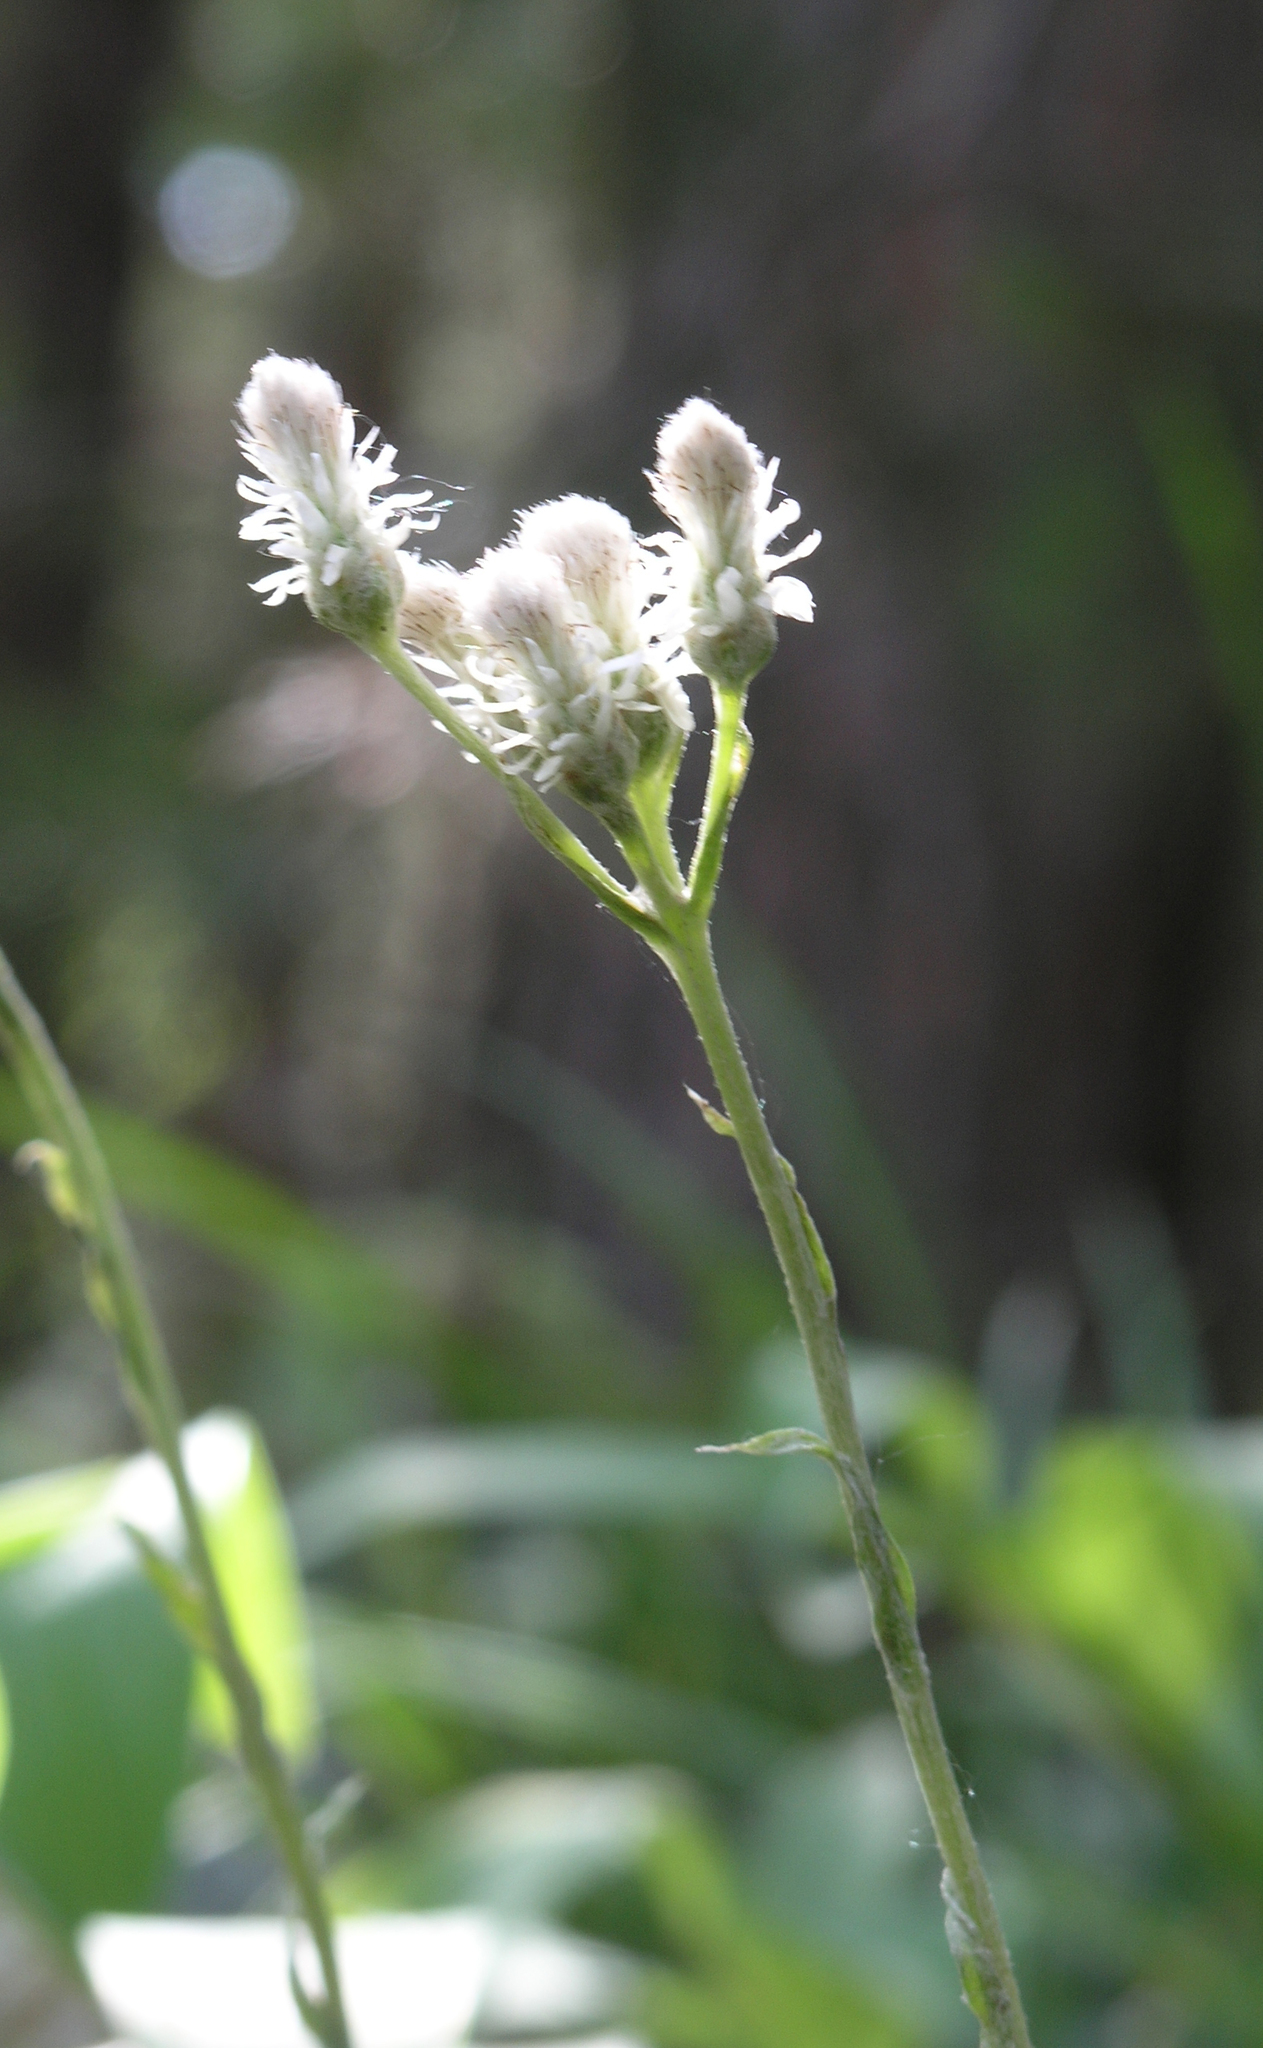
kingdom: Plantae
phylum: Tracheophyta
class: Magnoliopsida
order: Asterales
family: Asteraceae
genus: Antennaria
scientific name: Antennaria dioica
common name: Mountain everlasting
